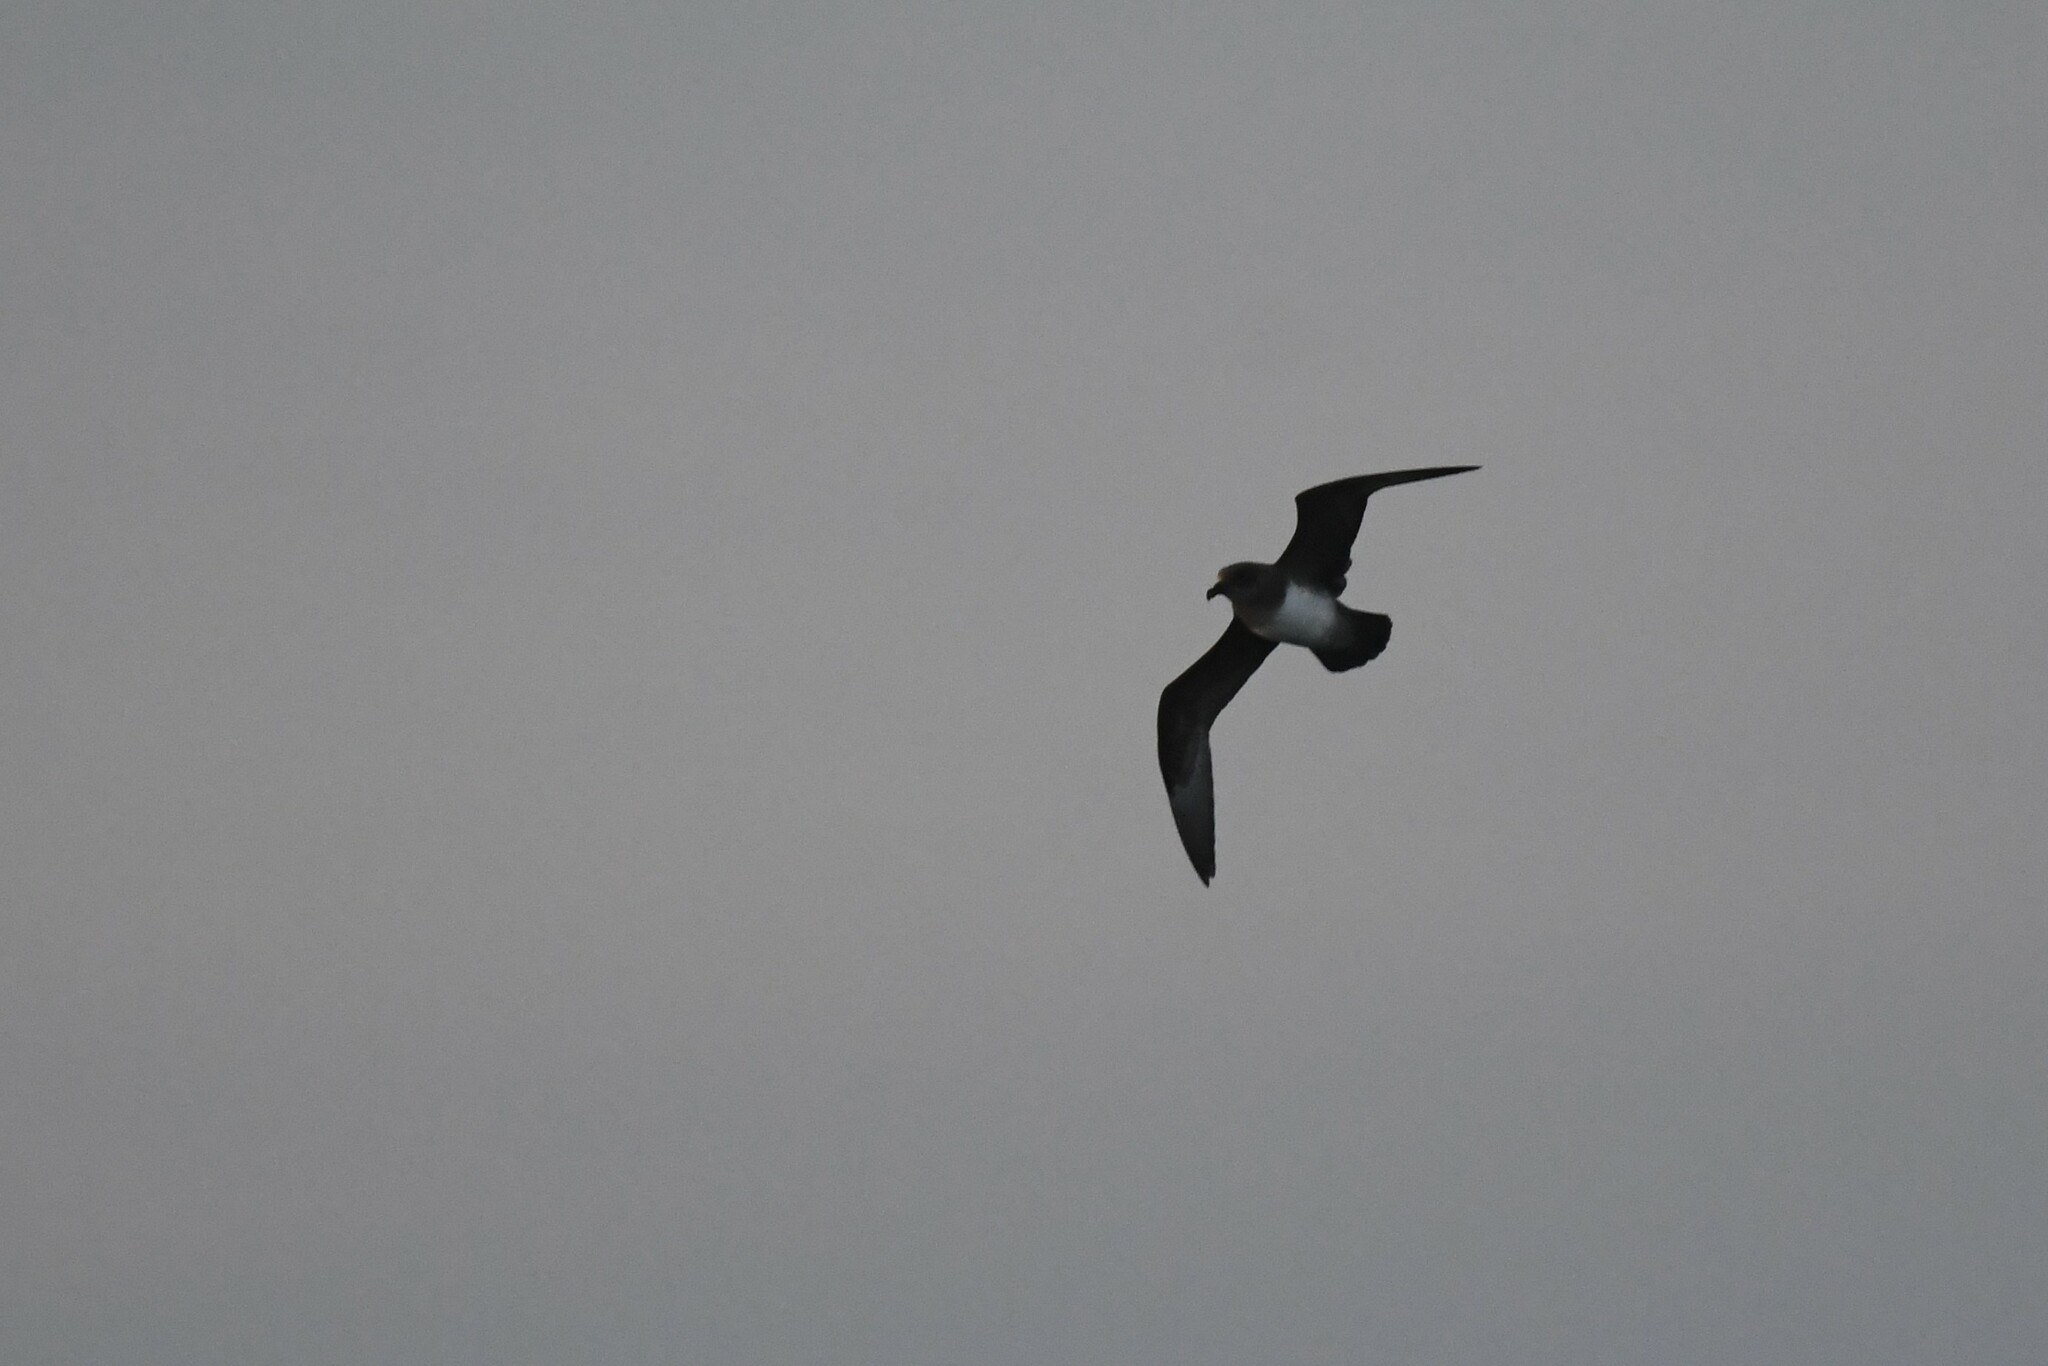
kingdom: Animalia
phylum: Chordata
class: Aves
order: Procellariiformes
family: Procellariidae
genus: Pterodroma
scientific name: Pterodroma incerta
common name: Atlantic petrel
